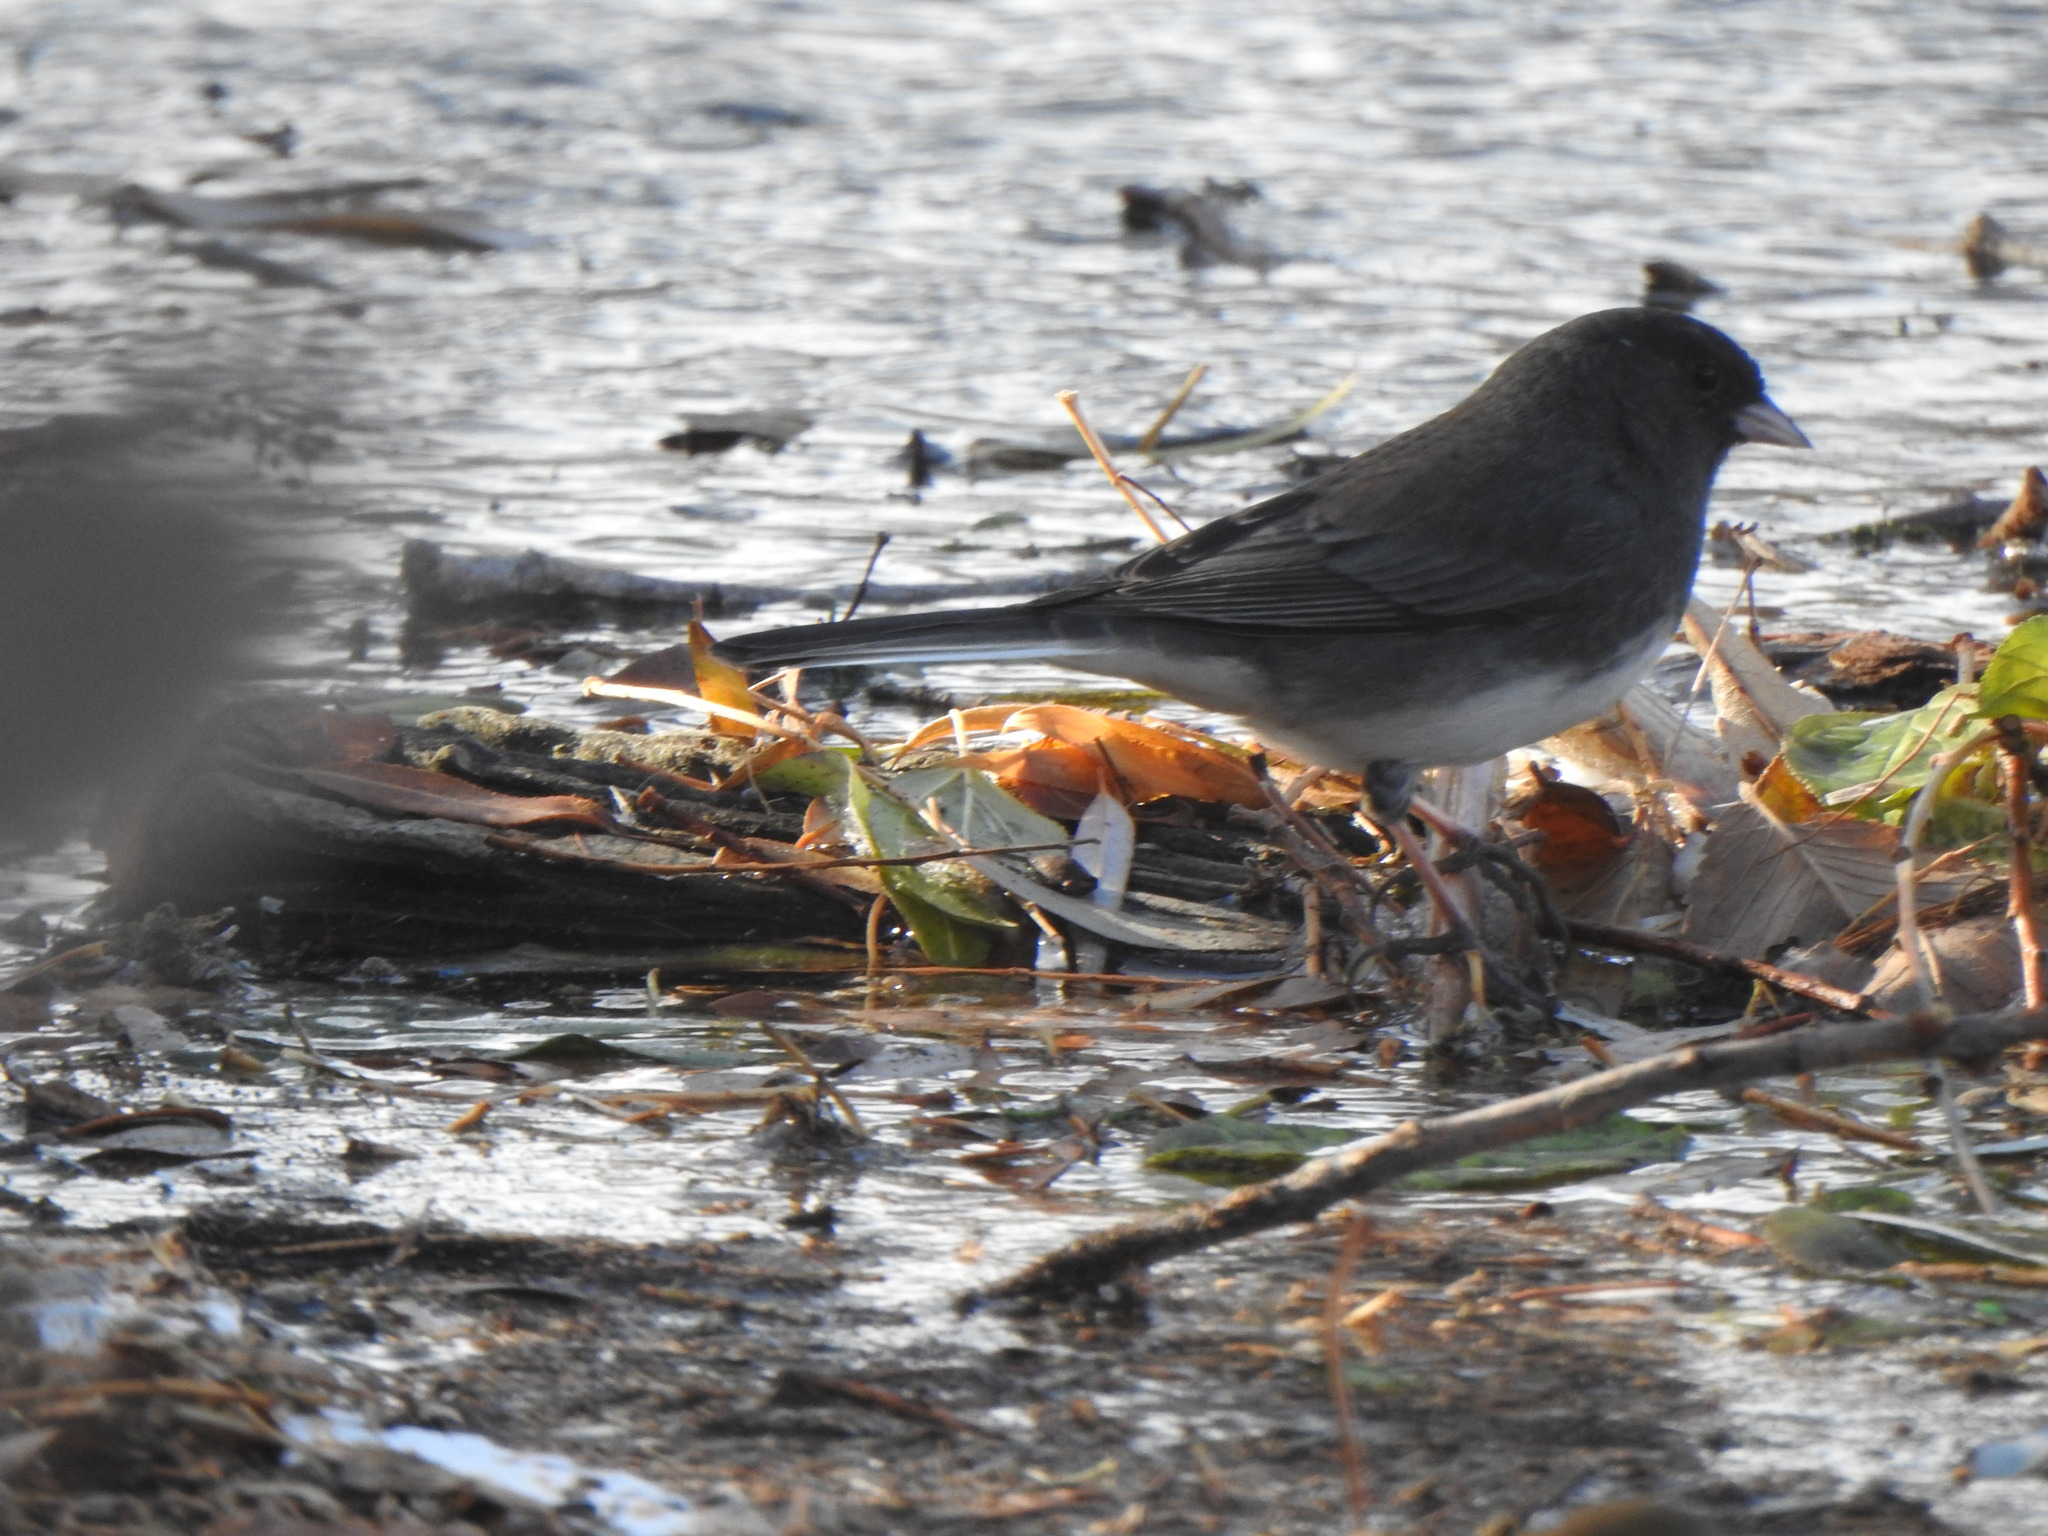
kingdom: Animalia
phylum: Chordata
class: Aves
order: Passeriformes
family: Passerellidae
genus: Junco
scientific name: Junco hyemalis
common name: Dark-eyed junco
